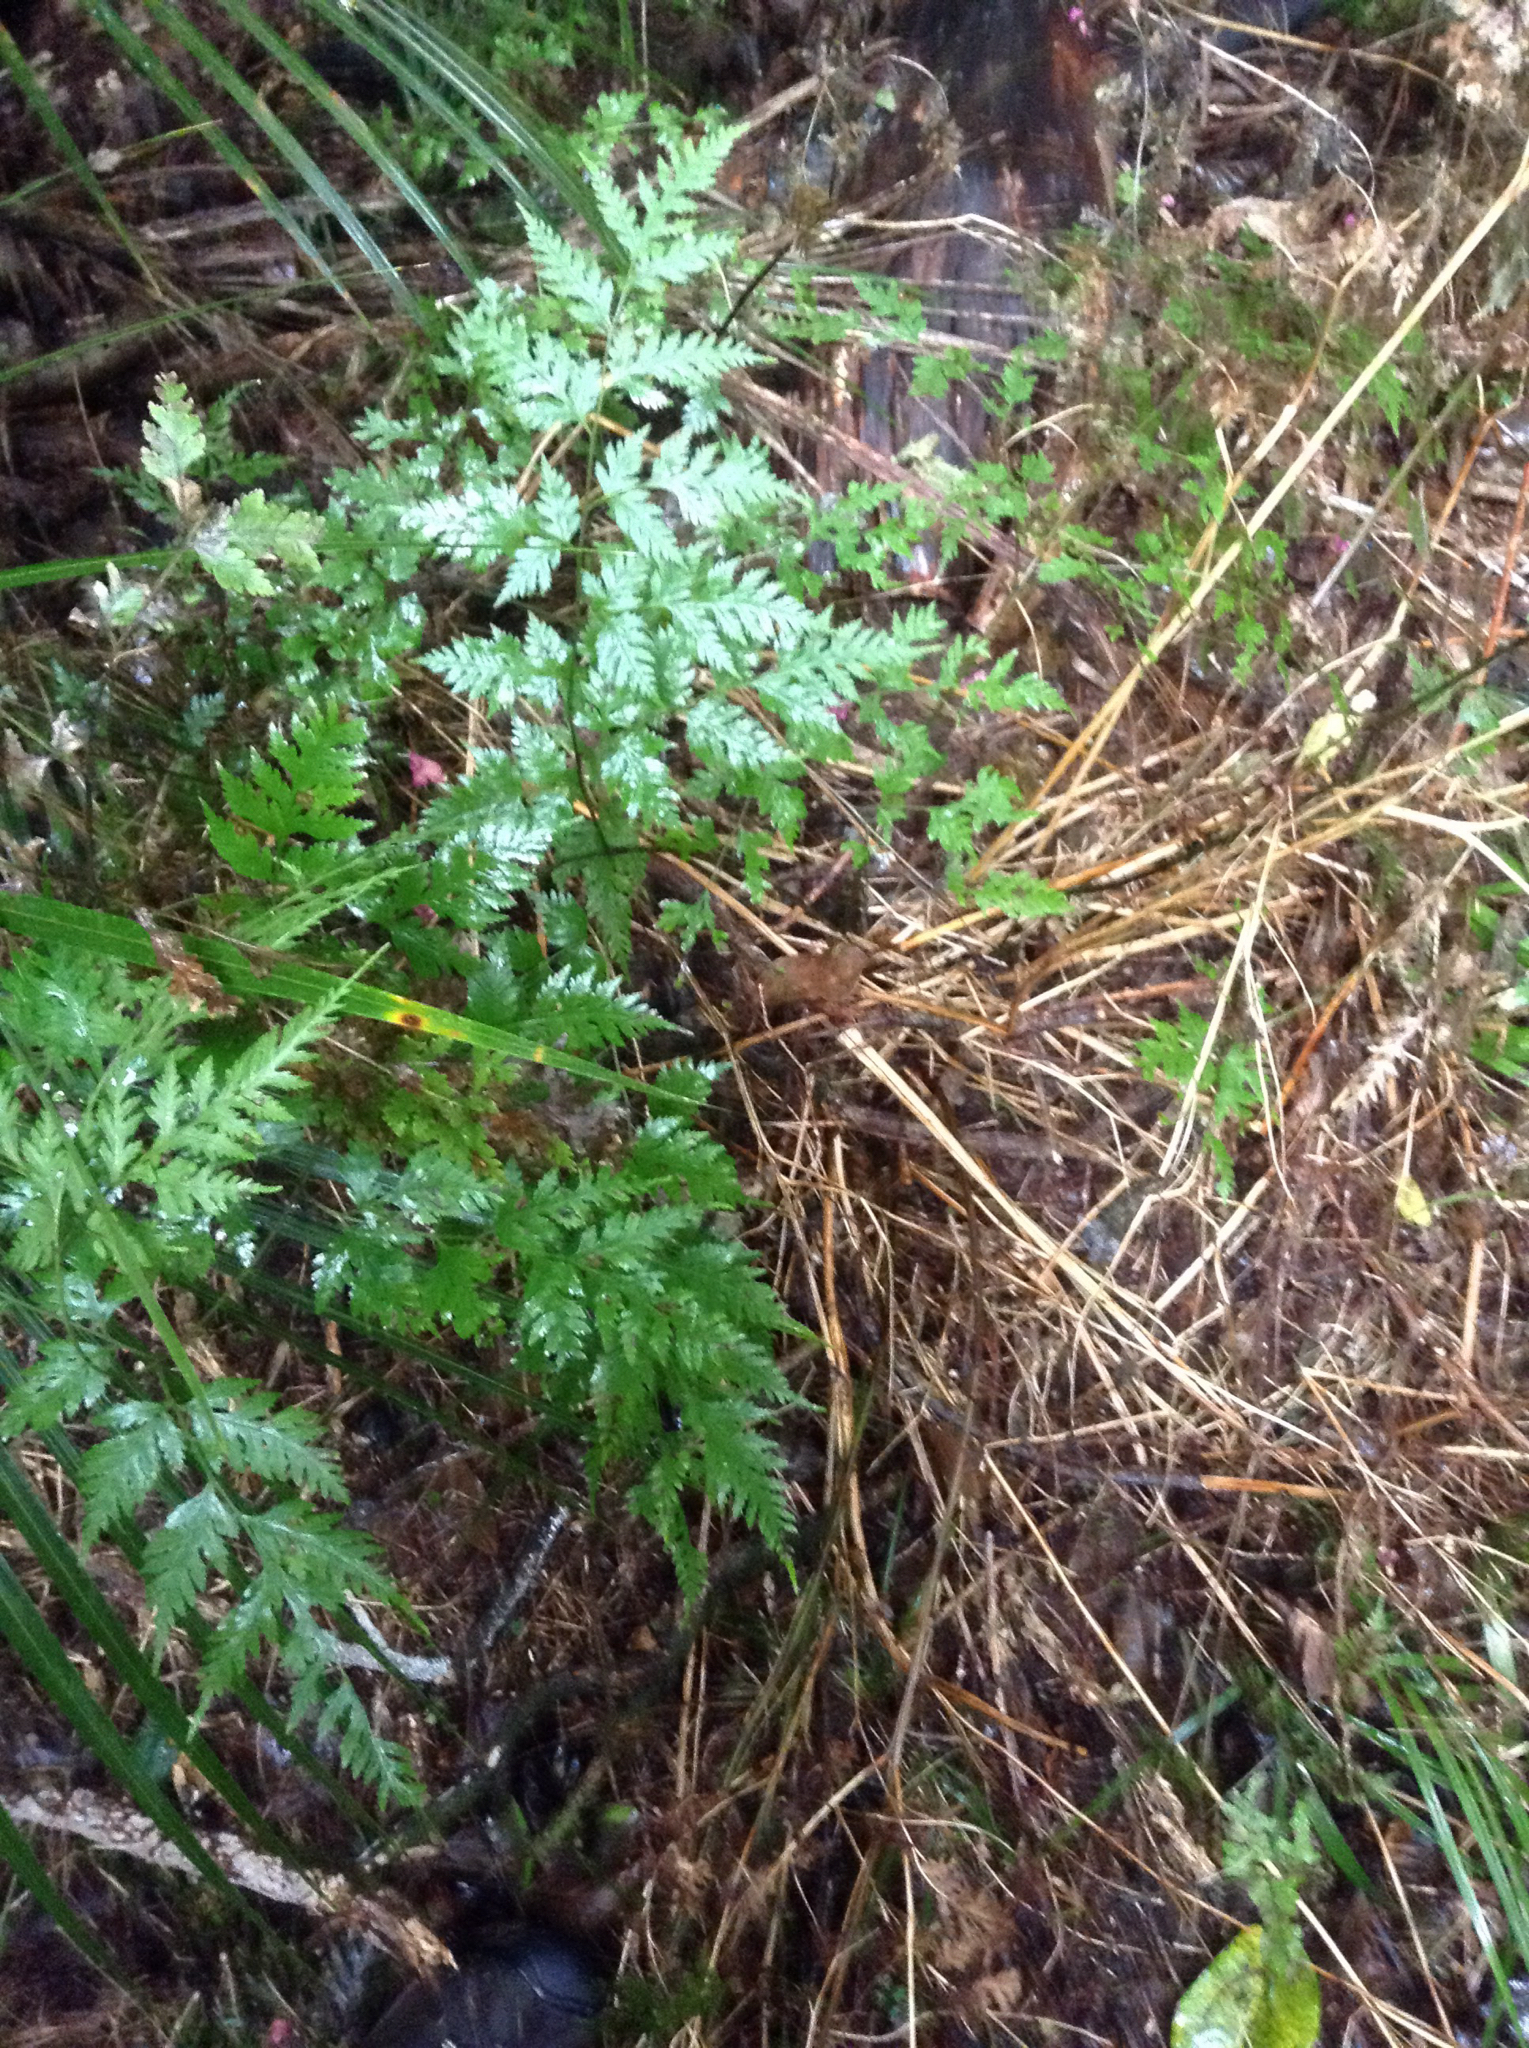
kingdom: Plantae
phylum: Tracheophyta
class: Polypodiopsida
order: Polypodiales
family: Pteridaceae
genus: Pteris
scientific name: Pteris macilenta
